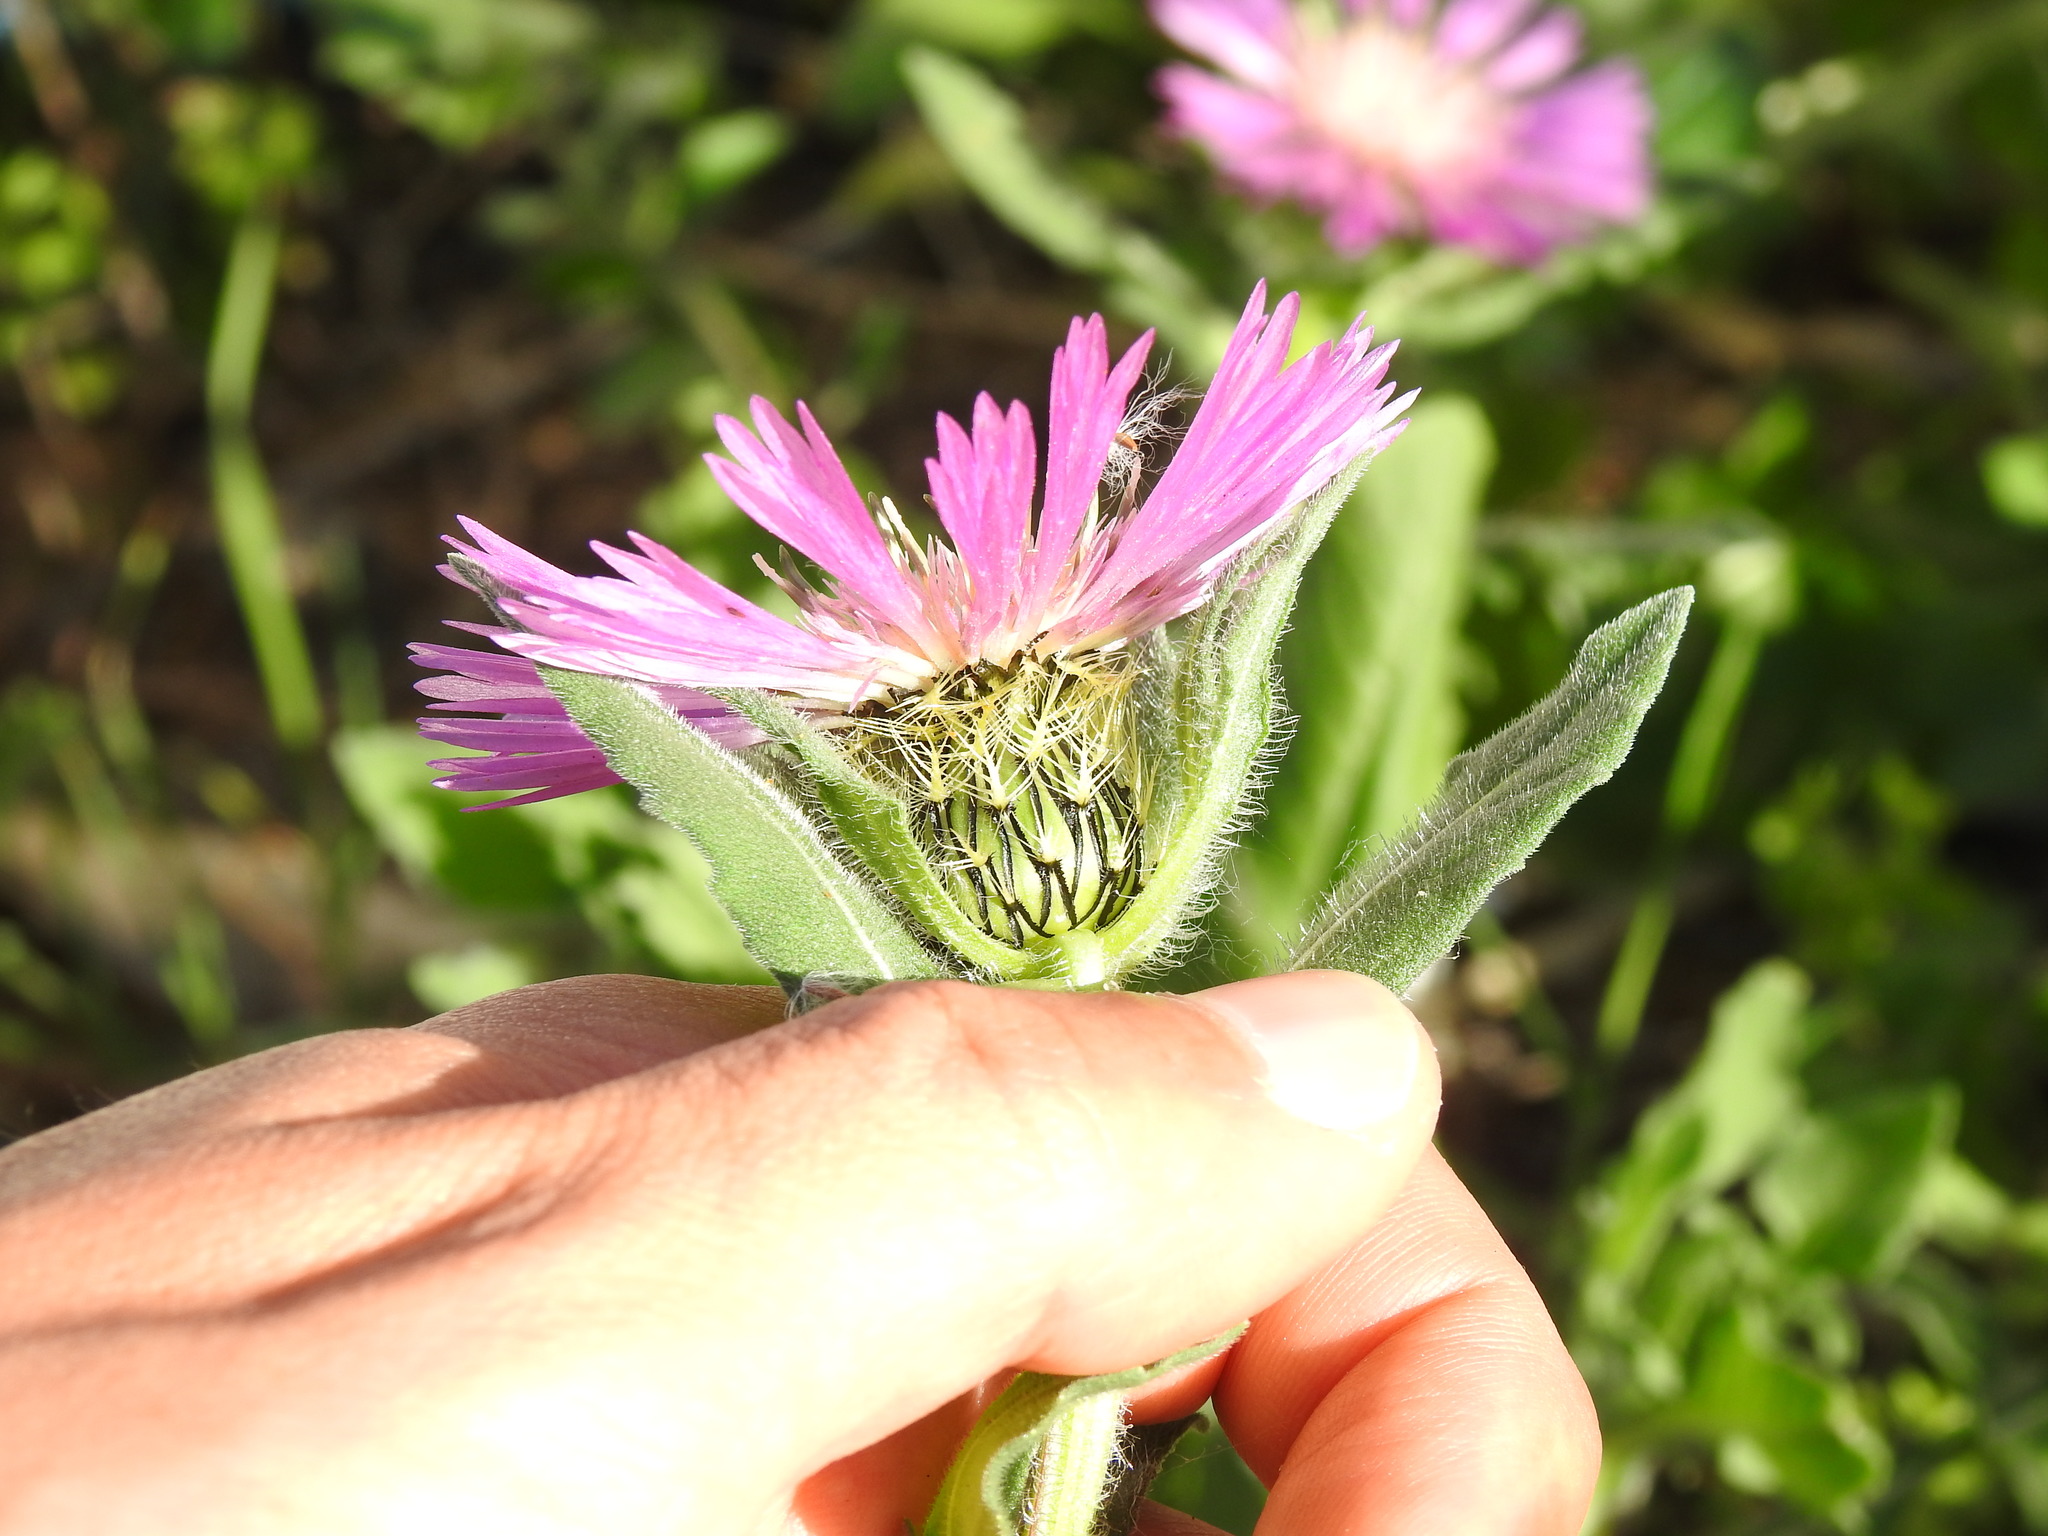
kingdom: Plantae
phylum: Tracheophyta
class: Magnoliopsida
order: Asterales
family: Asteraceae
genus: Centaurea
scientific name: Centaurea pullata
